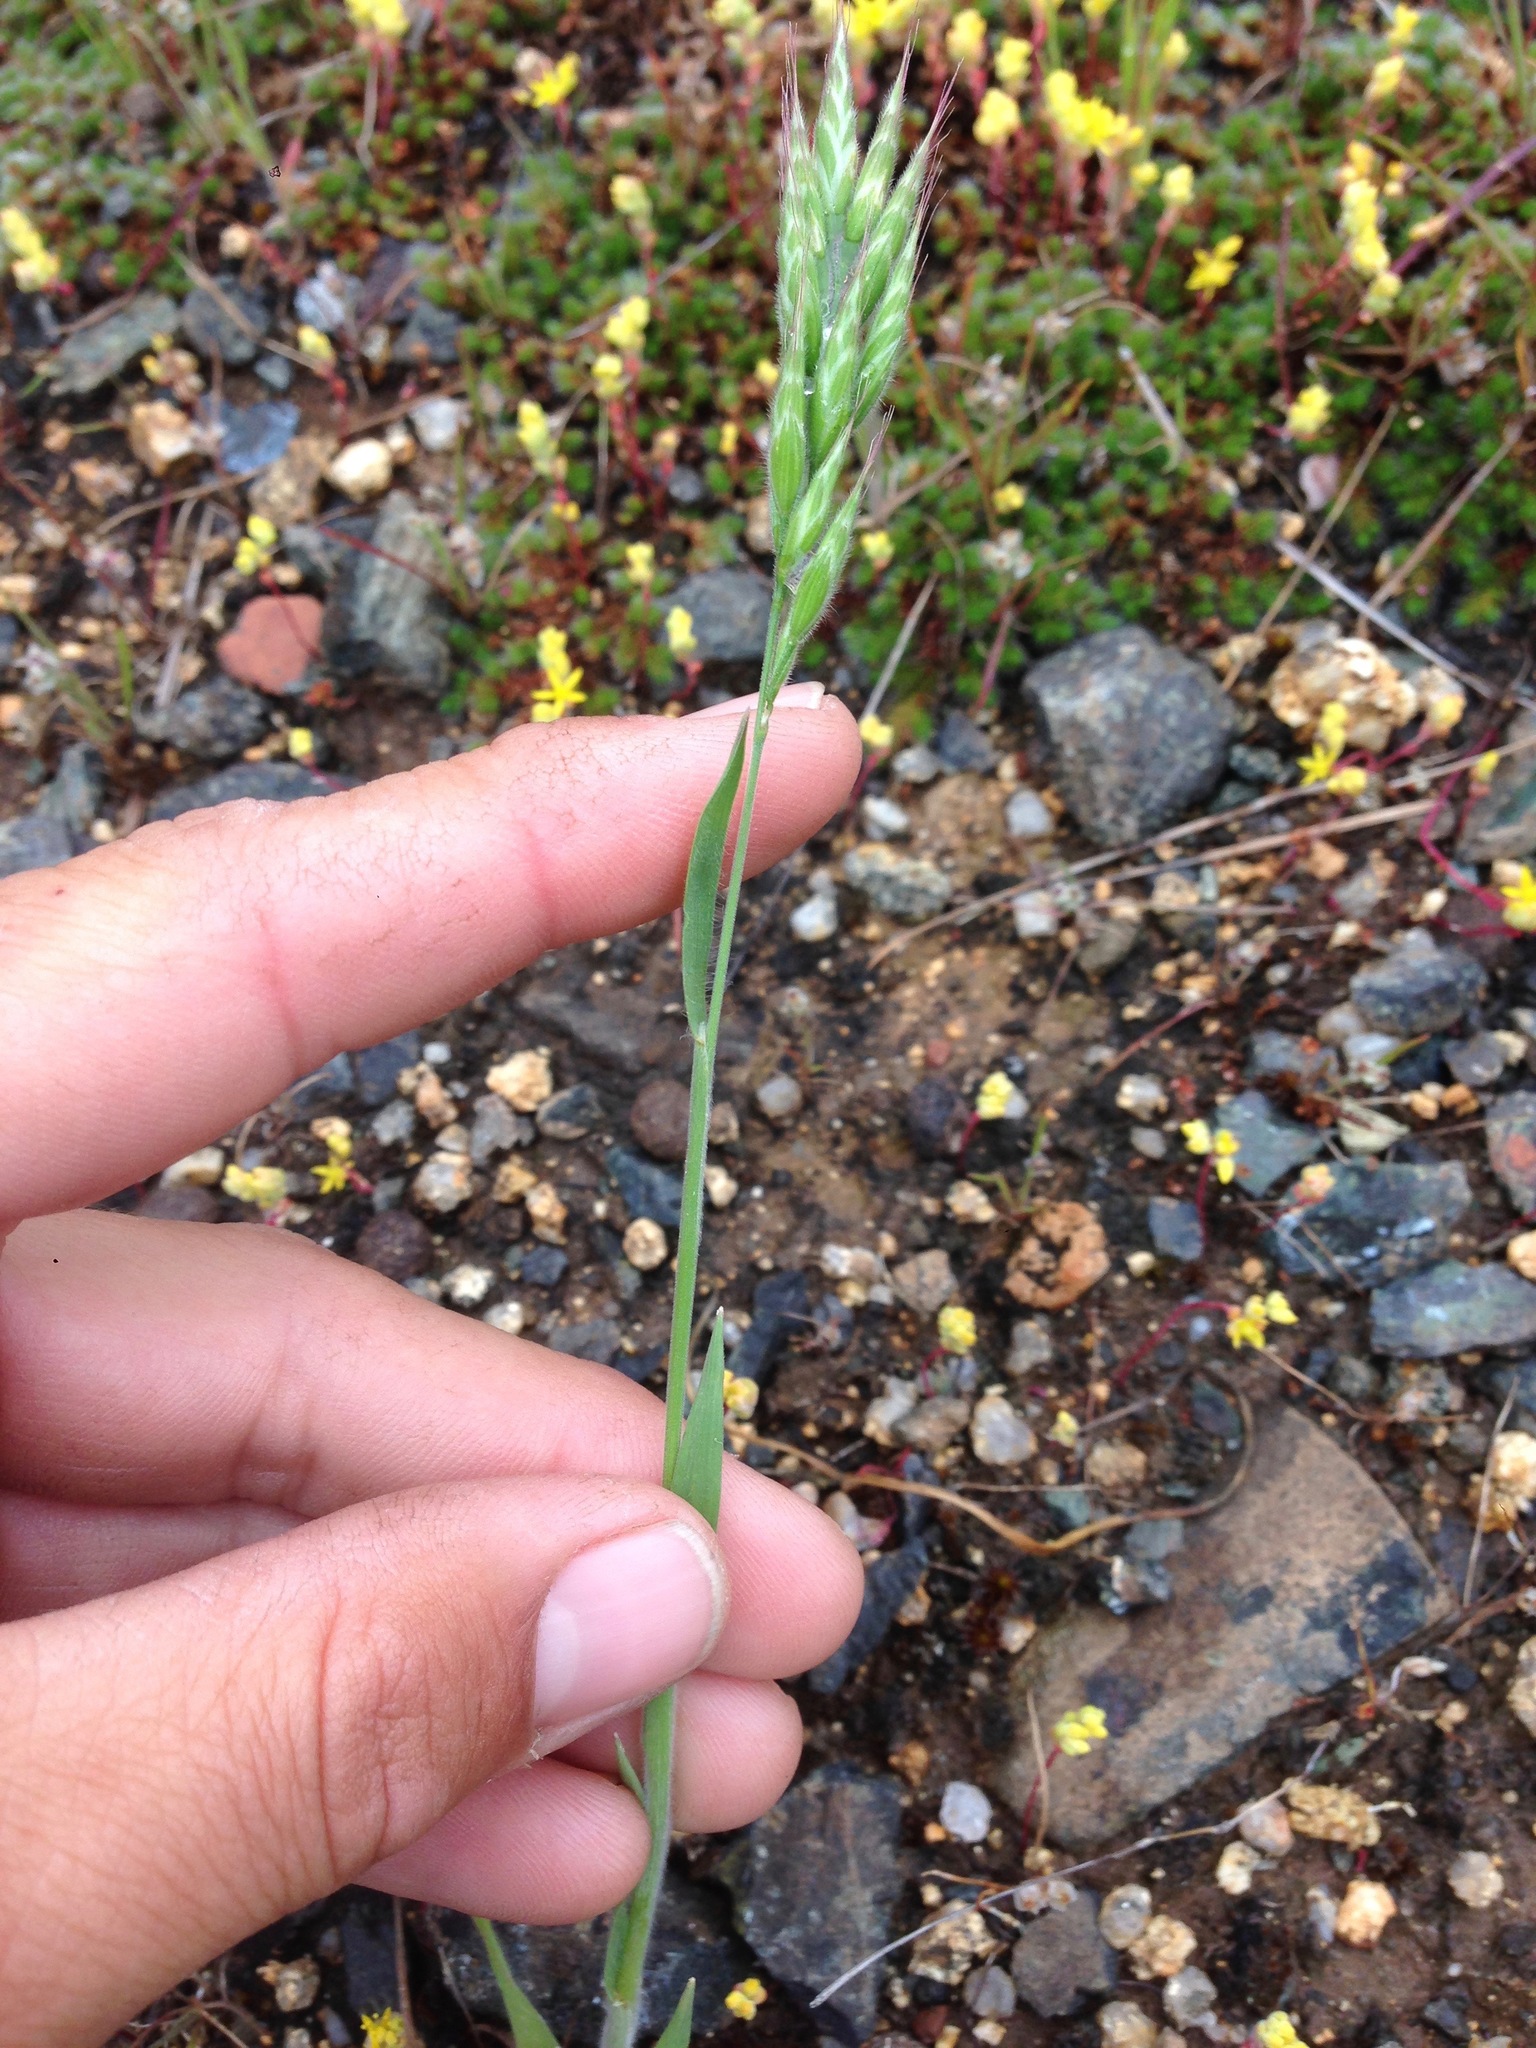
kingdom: Plantae
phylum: Tracheophyta
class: Liliopsida
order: Poales
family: Poaceae
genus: Bromus
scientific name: Bromus hordeaceus
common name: Soft brome
